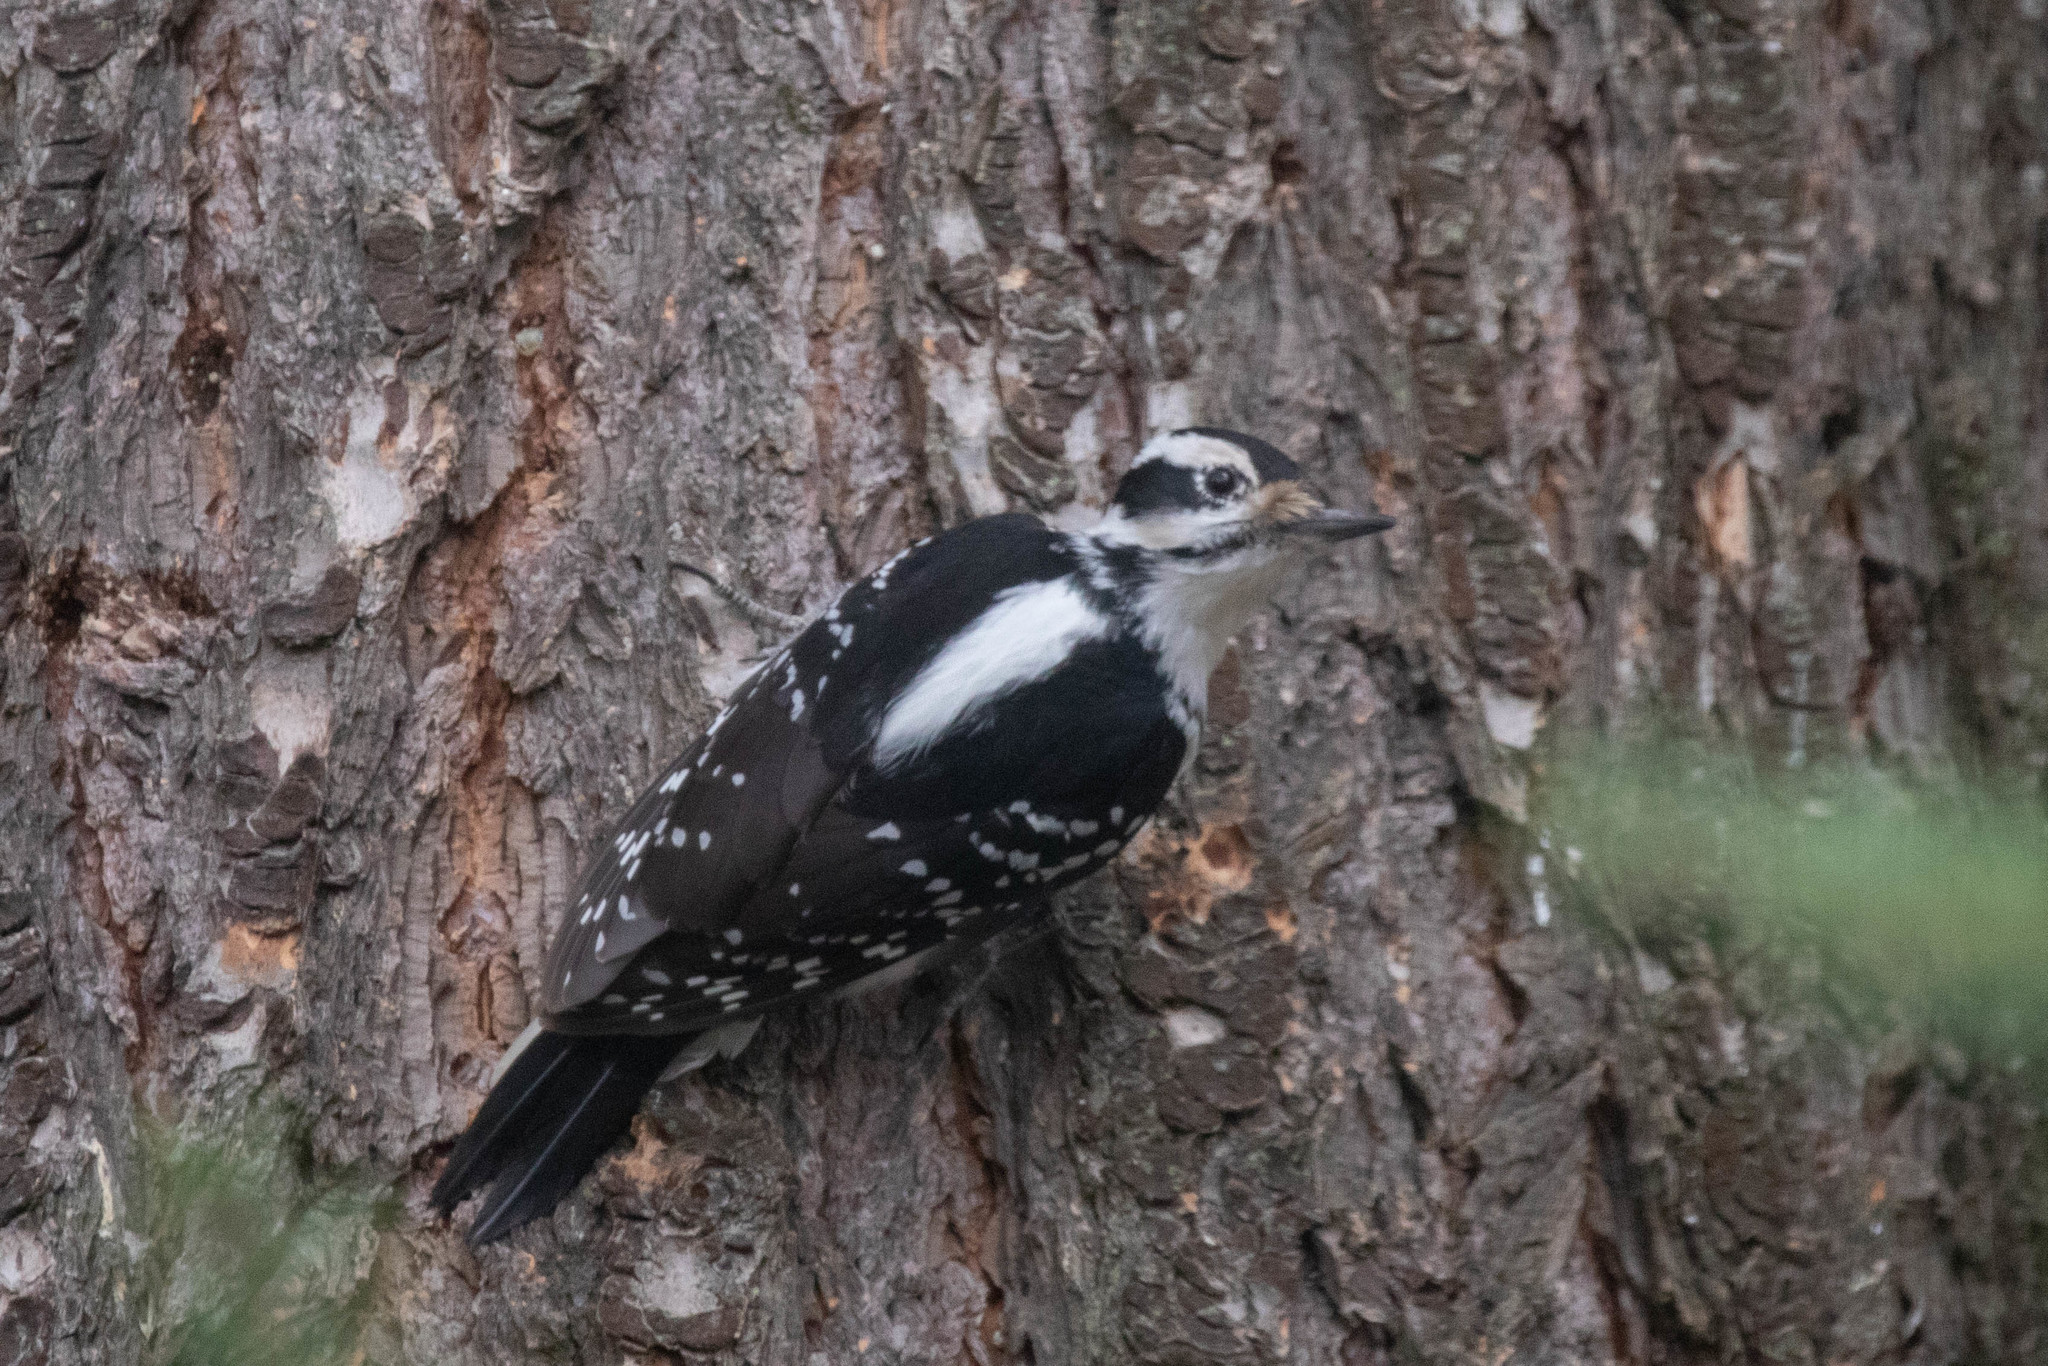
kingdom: Animalia
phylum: Chordata
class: Aves
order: Piciformes
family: Picidae
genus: Leuconotopicus
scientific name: Leuconotopicus villosus
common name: Hairy woodpecker
